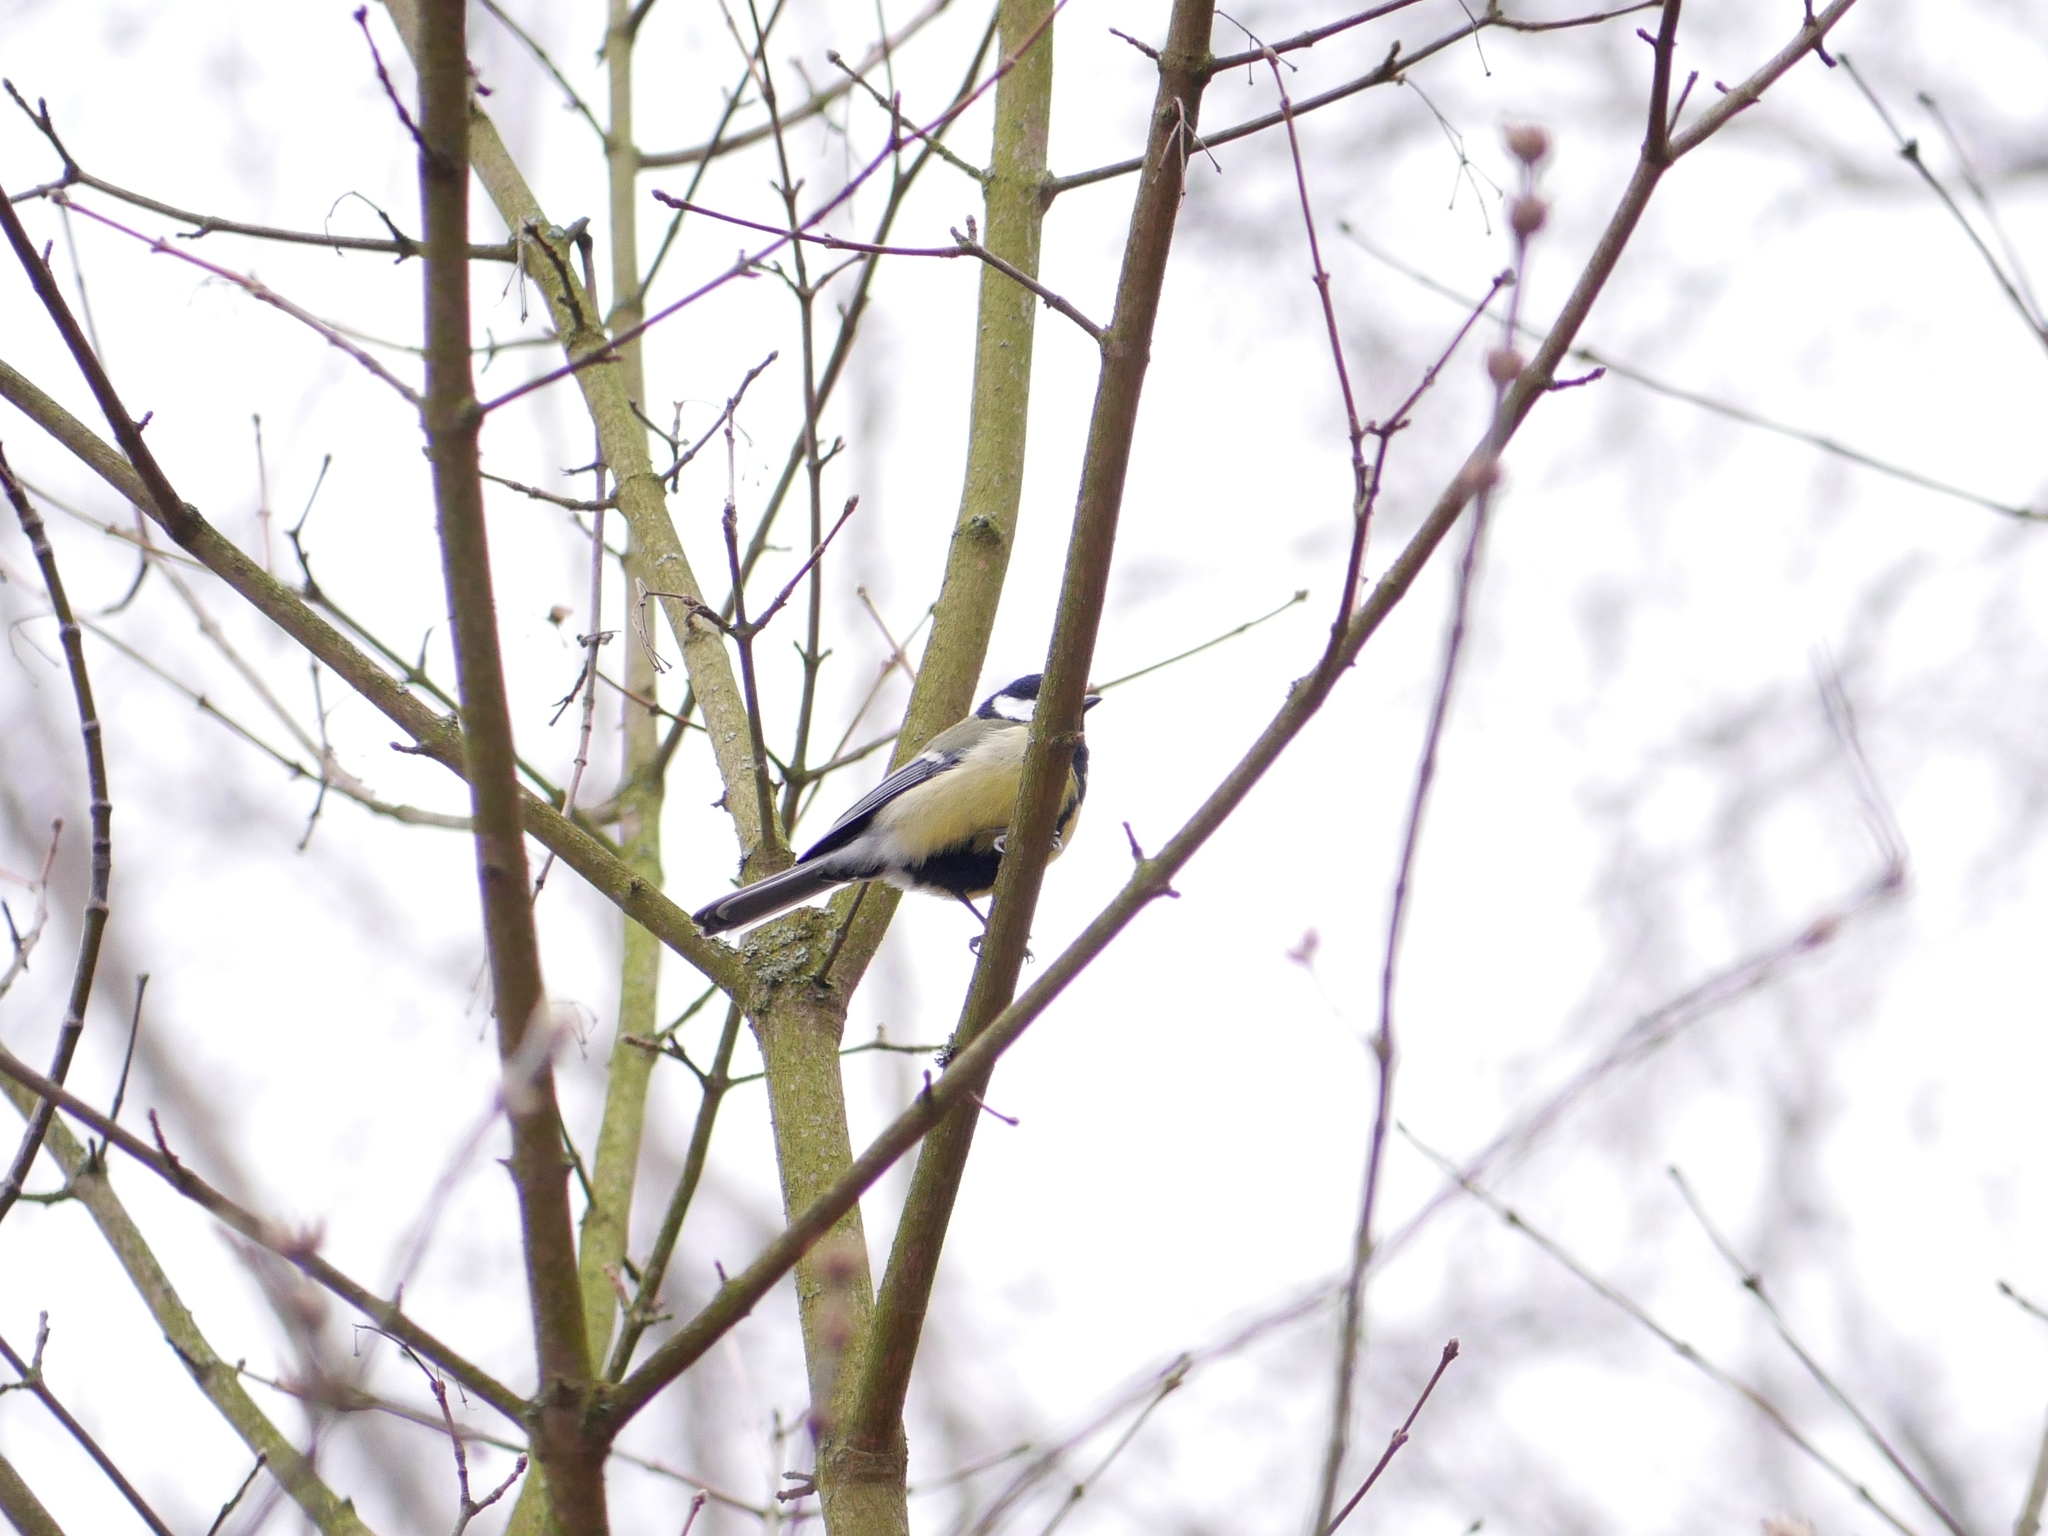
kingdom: Animalia
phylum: Chordata
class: Aves
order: Passeriformes
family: Paridae
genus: Parus
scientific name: Parus major
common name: Great tit
